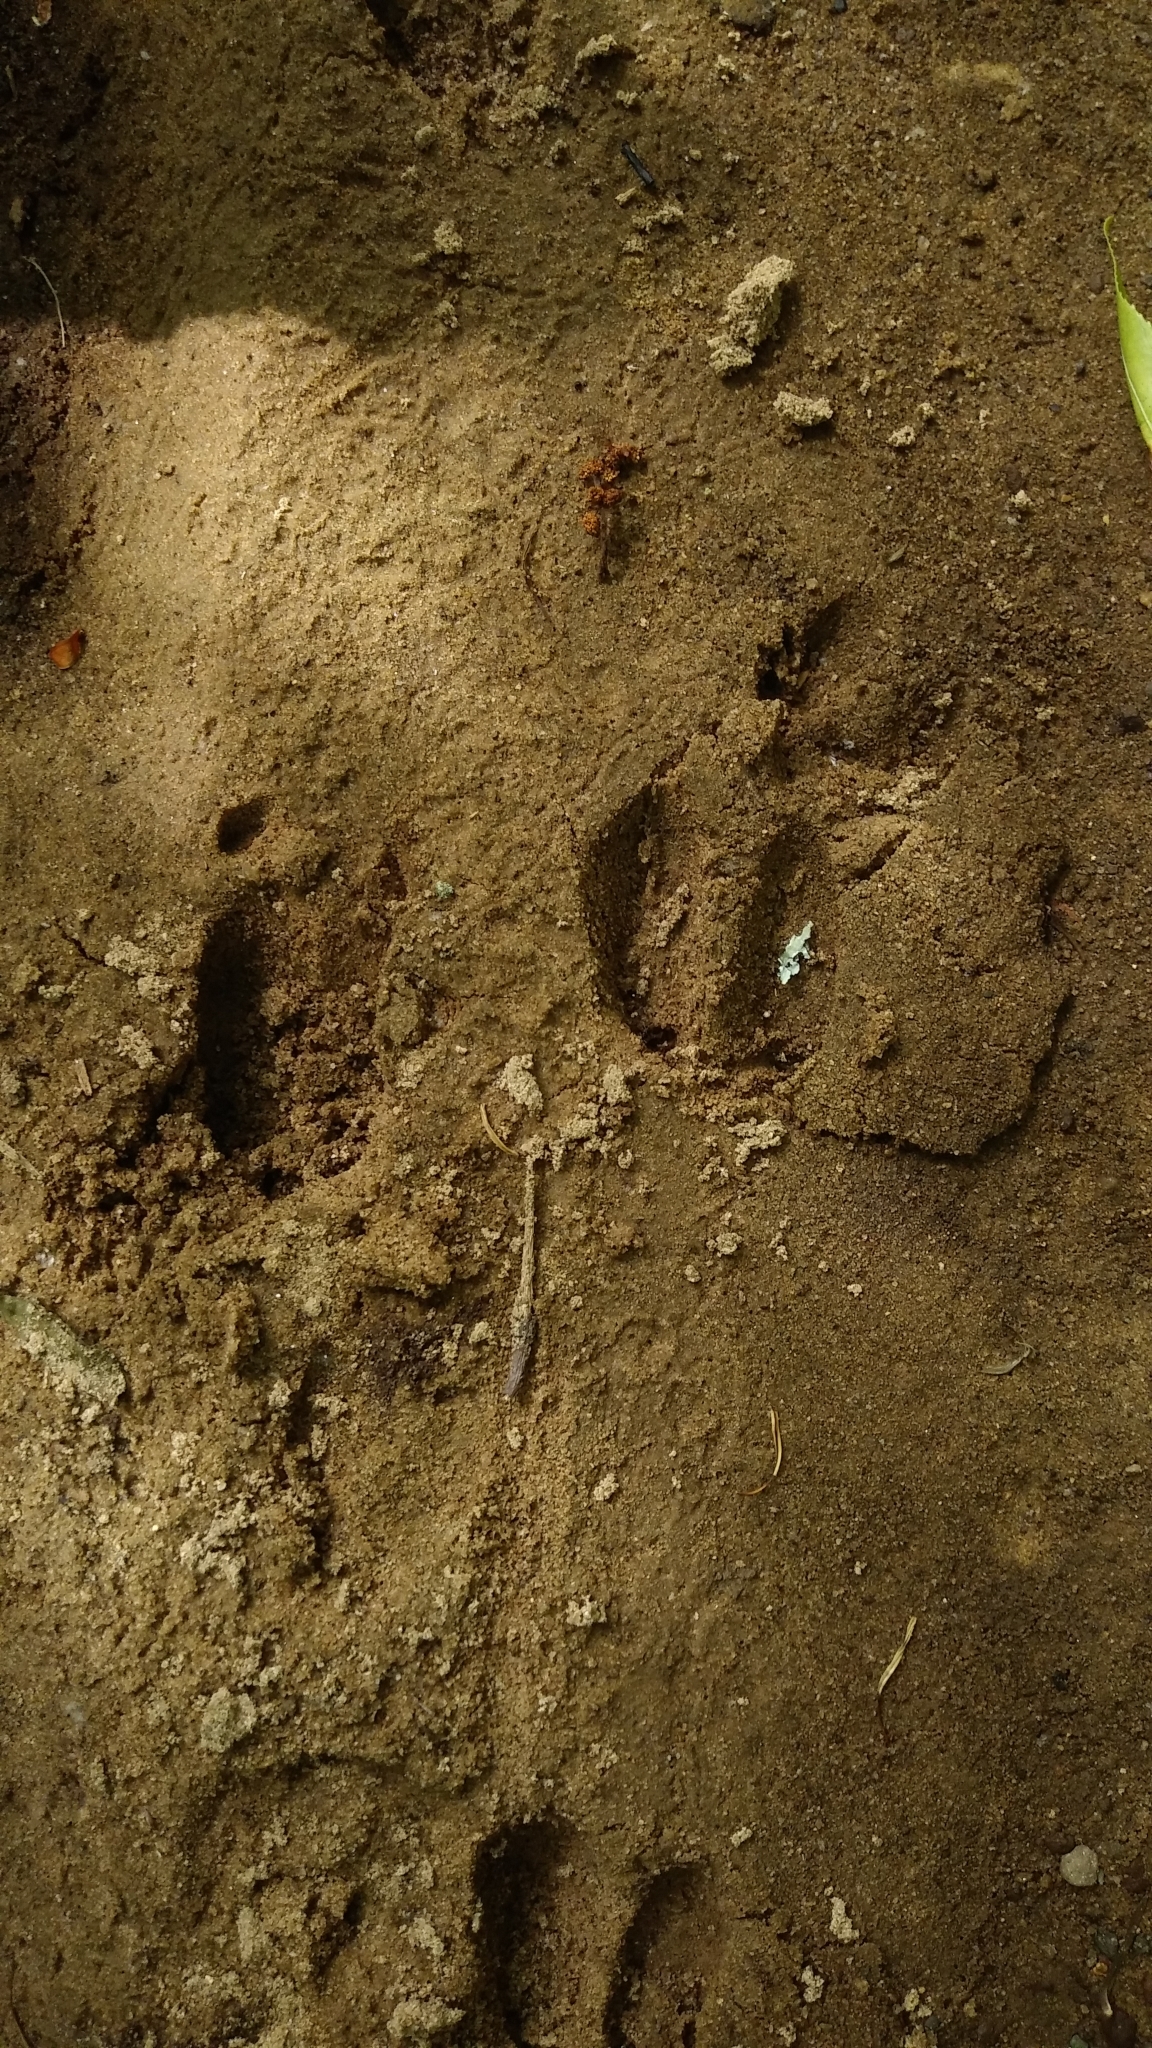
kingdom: Animalia
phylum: Chordata
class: Mammalia
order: Artiodactyla
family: Cervidae
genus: Odocoileus
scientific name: Odocoileus virginianus
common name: White-tailed deer
